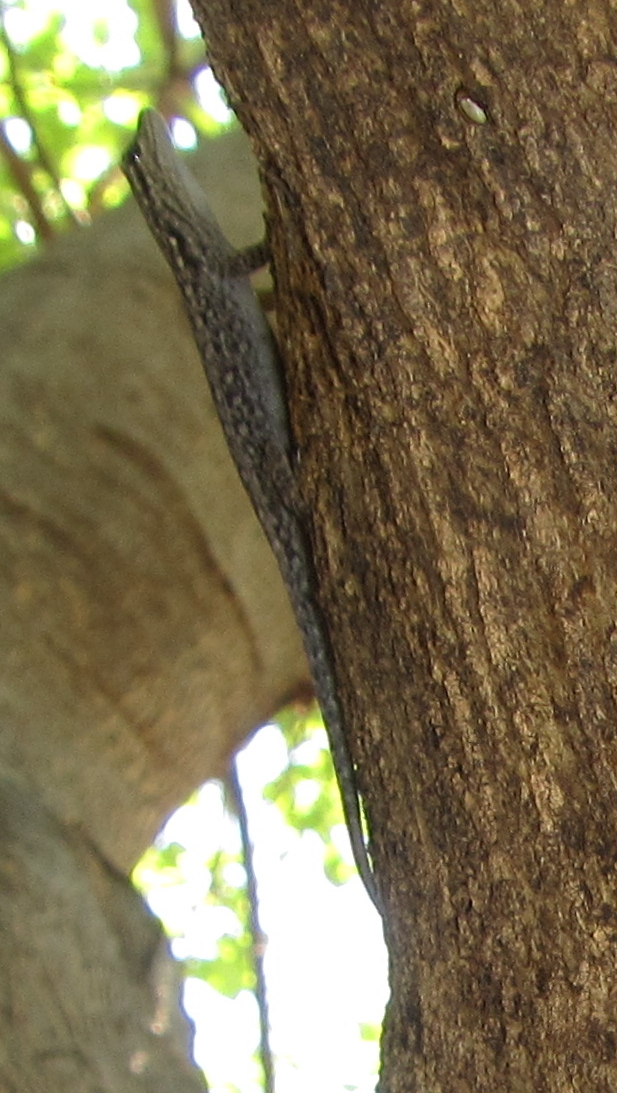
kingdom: Animalia
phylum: Chordata
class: Squamata
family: Gekkonidae
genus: Lygodactylus
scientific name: Lygodactylus chobiensis
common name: Okavango dwarf gecko
